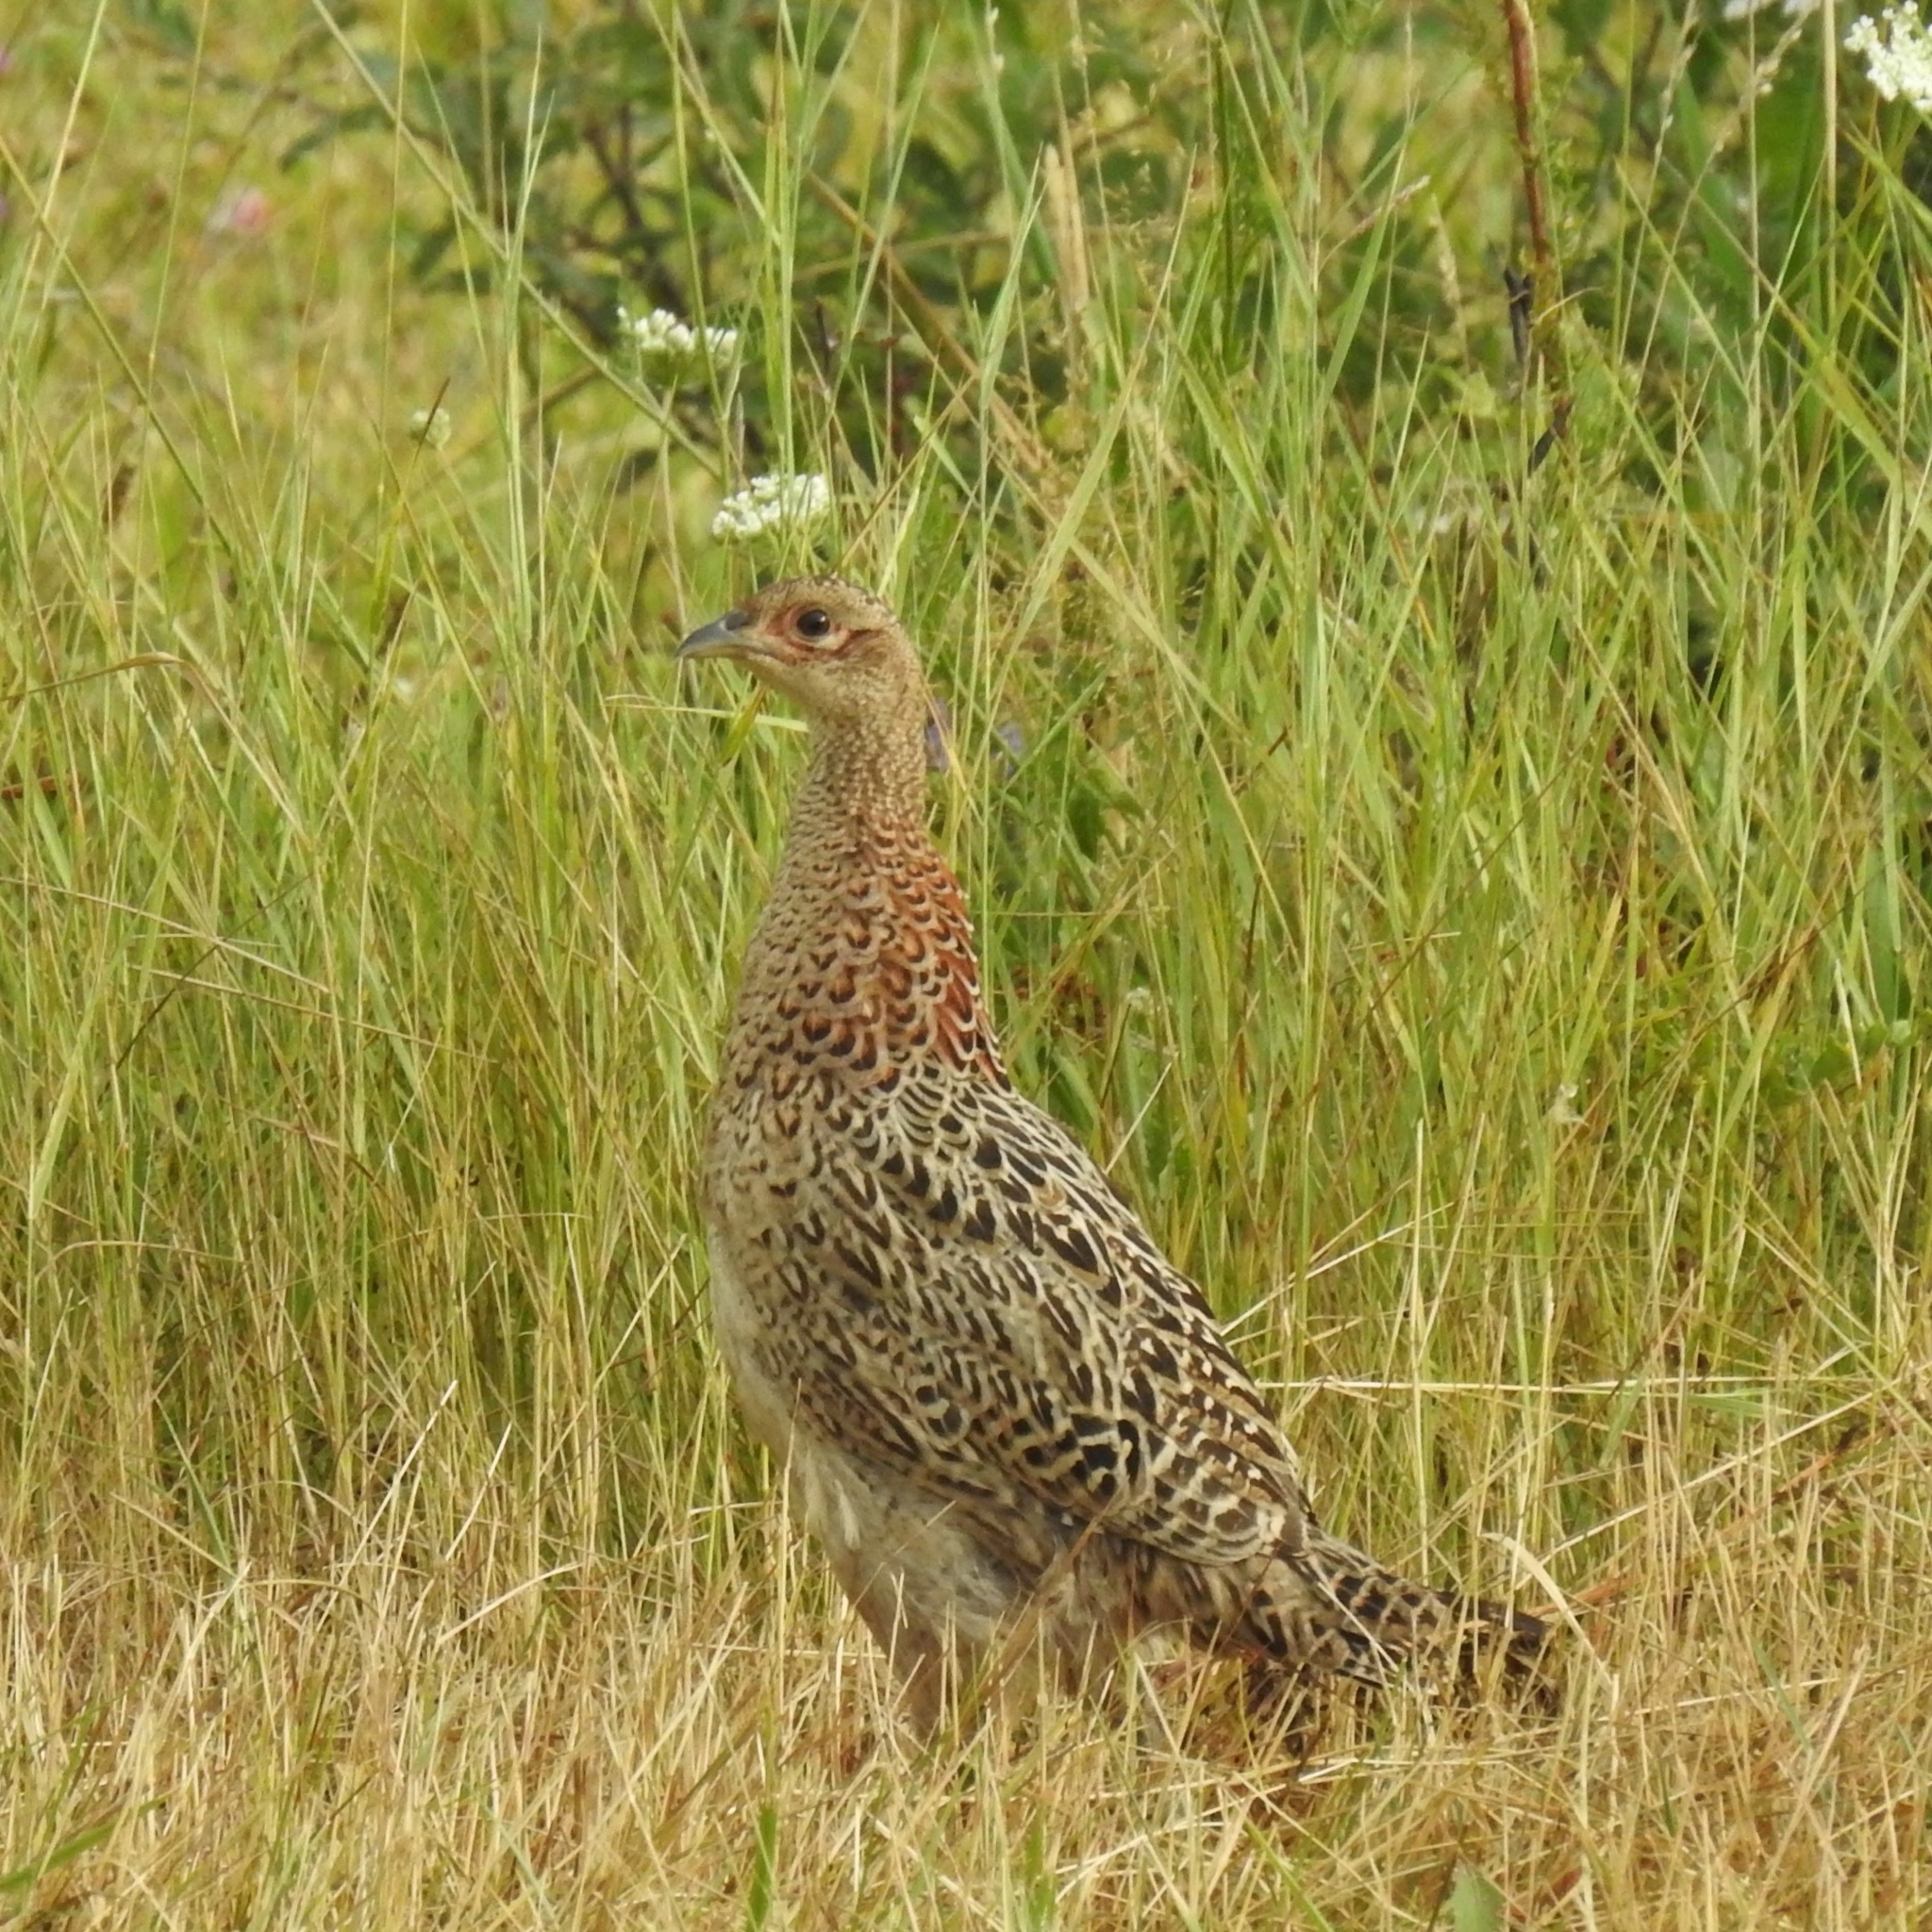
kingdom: Animalia
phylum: Chordata
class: Aves
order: Galliformes
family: Phasianidae
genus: Phasianus
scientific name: Phasianus colchicus
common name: Common pheasant
